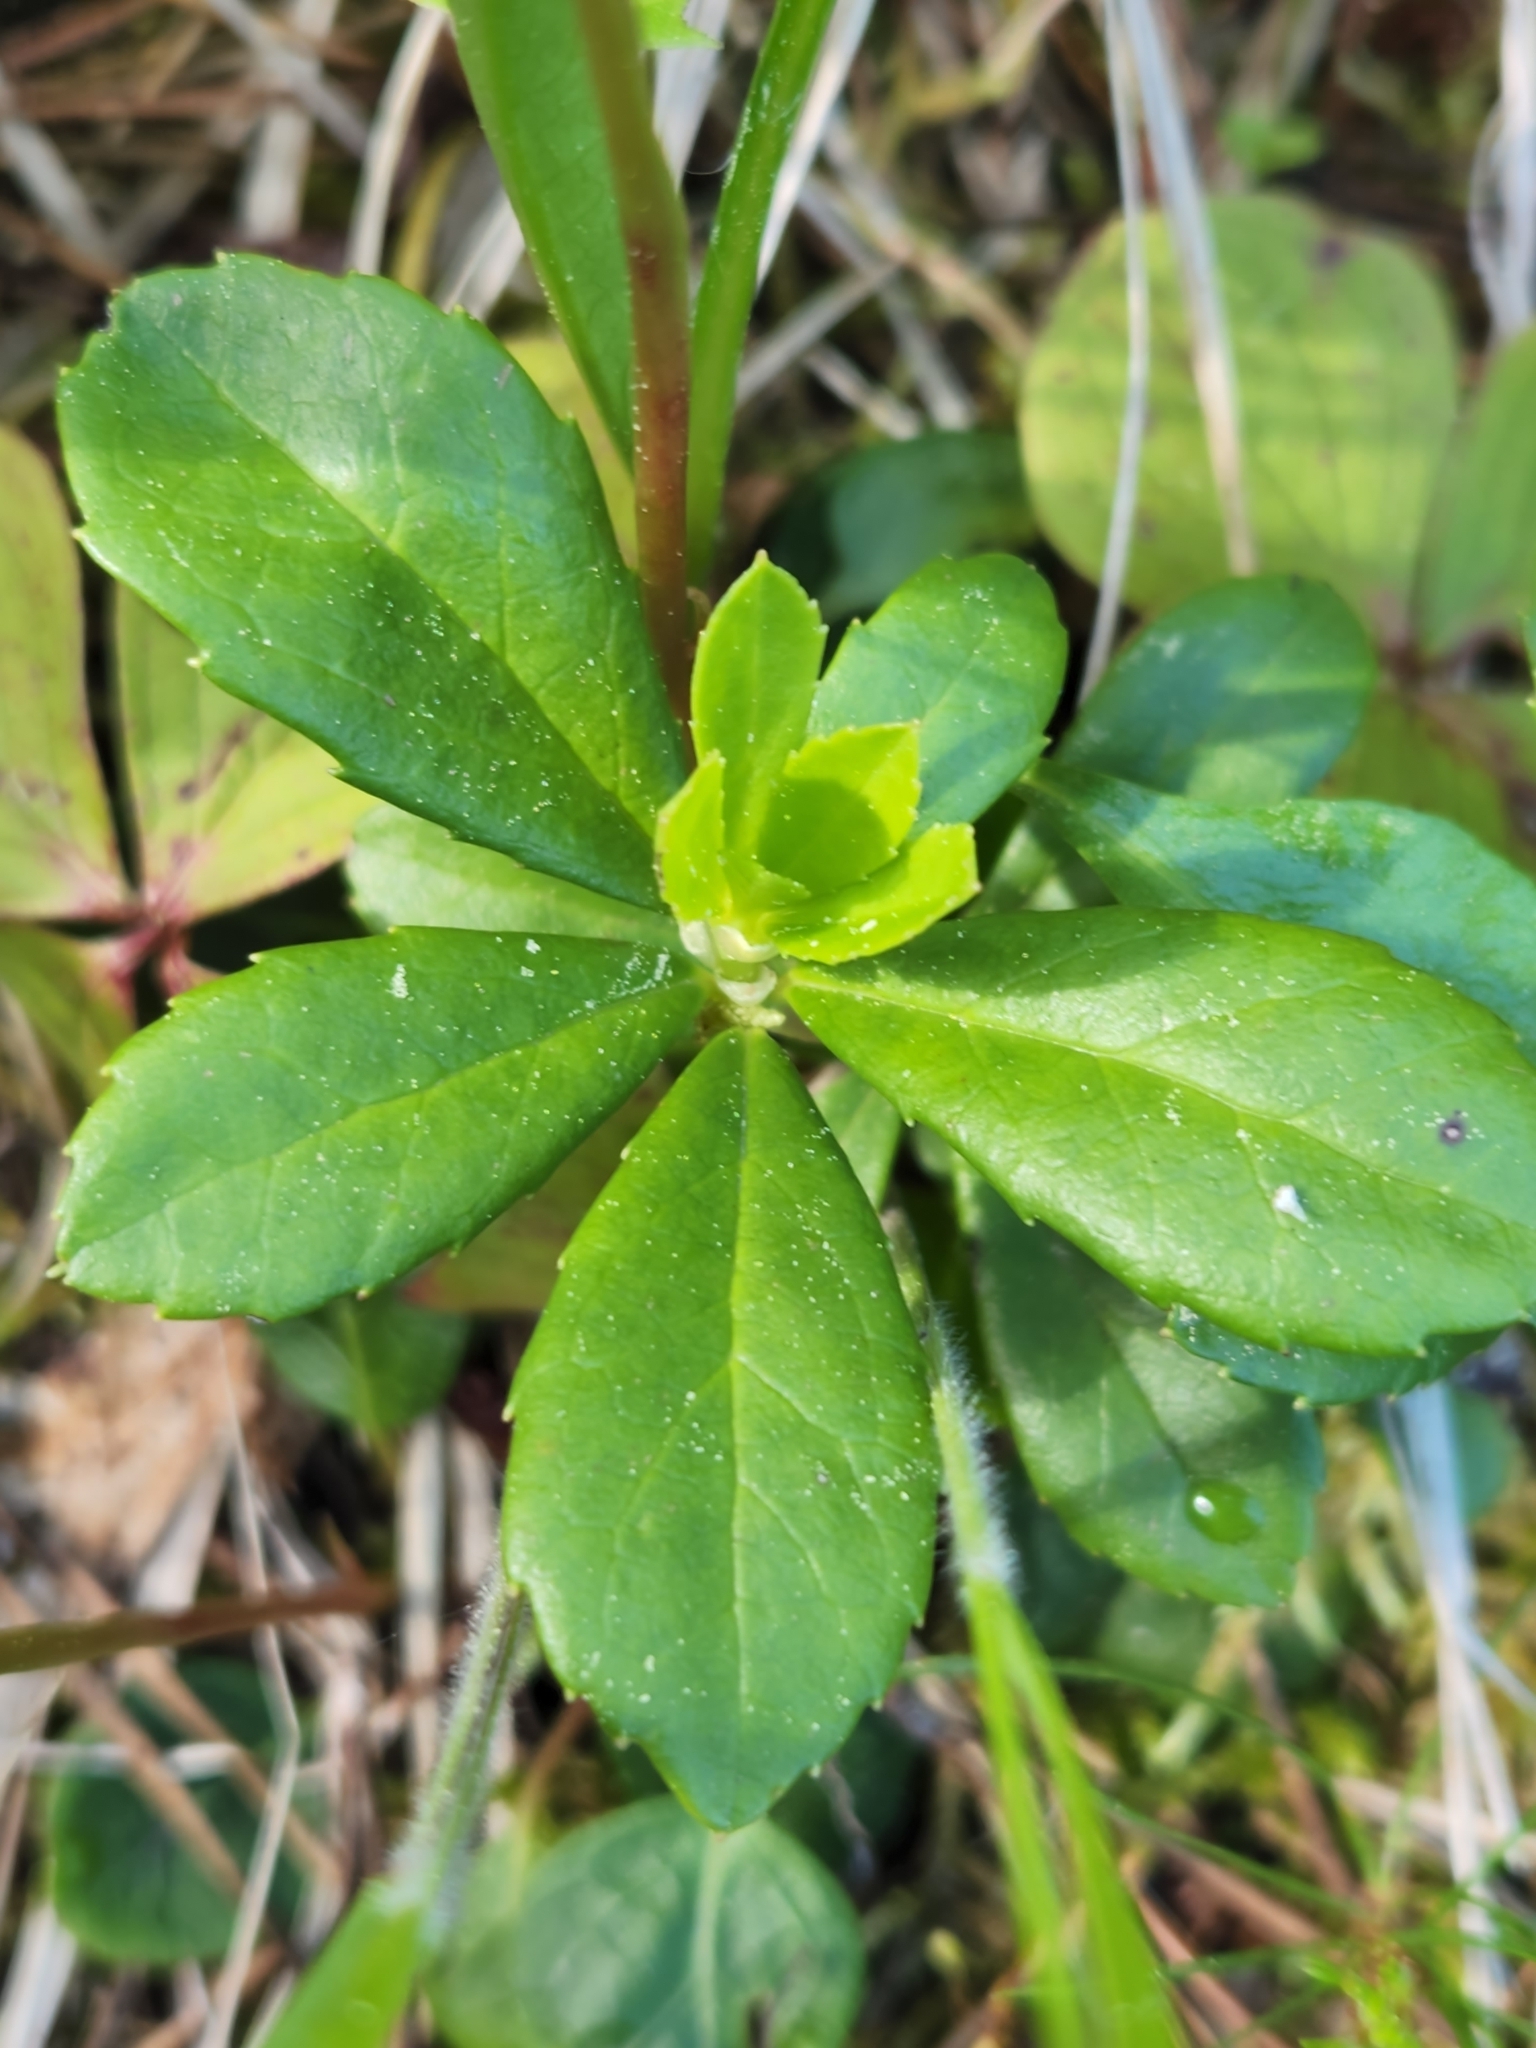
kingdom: Plantae
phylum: Tracheophyta
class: Magnoliopsida
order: Ericales
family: Ericaceae
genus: Chimaphila
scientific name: Chimaphila umbellata
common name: Pipsissewa
